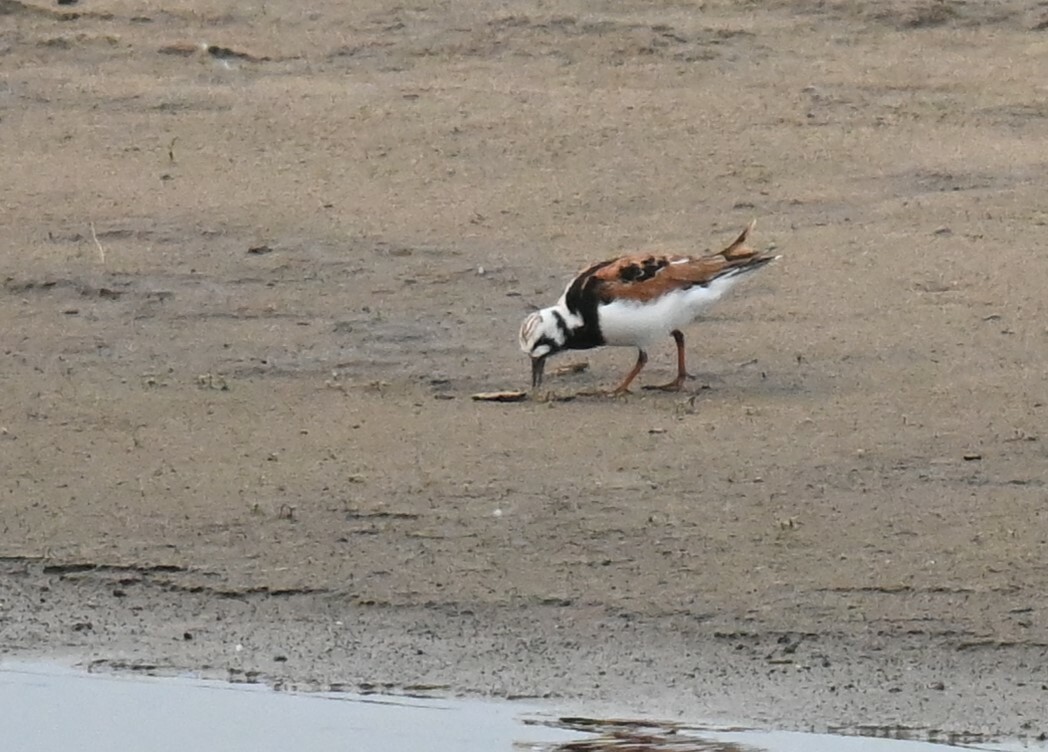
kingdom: Animalia
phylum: Chordata
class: Aves
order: Charadriiformes
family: Scolopacidae
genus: Arenaria
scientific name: Arenaria interpres
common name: Ruddy turnstone
